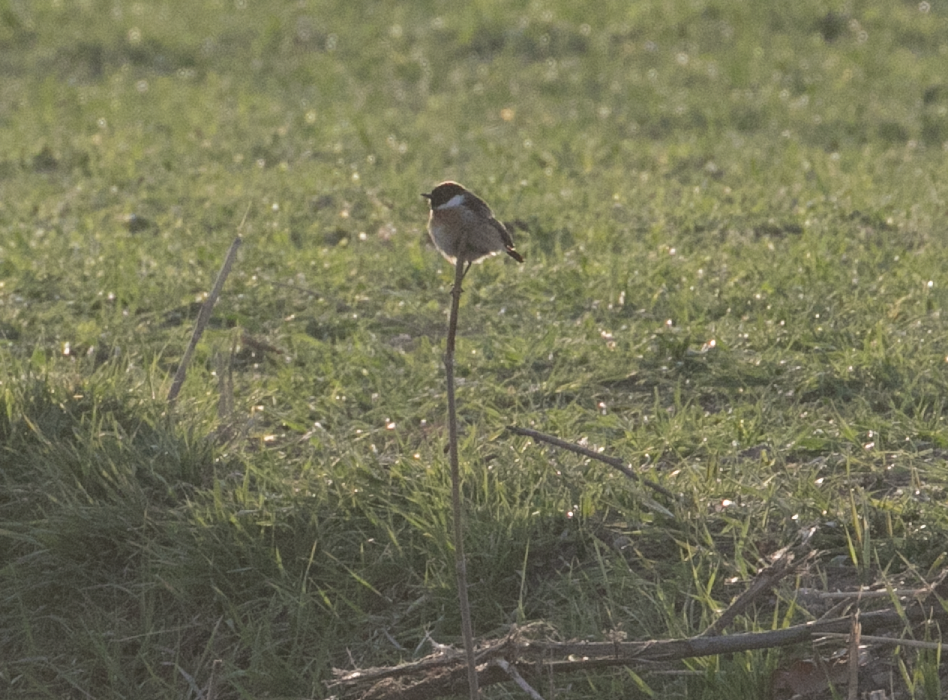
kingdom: Animalia
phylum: Chordata
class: Aves
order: Passeriformes
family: Muscicapidae
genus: Saxicola
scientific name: Saxicola rubicola
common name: European stonechat
